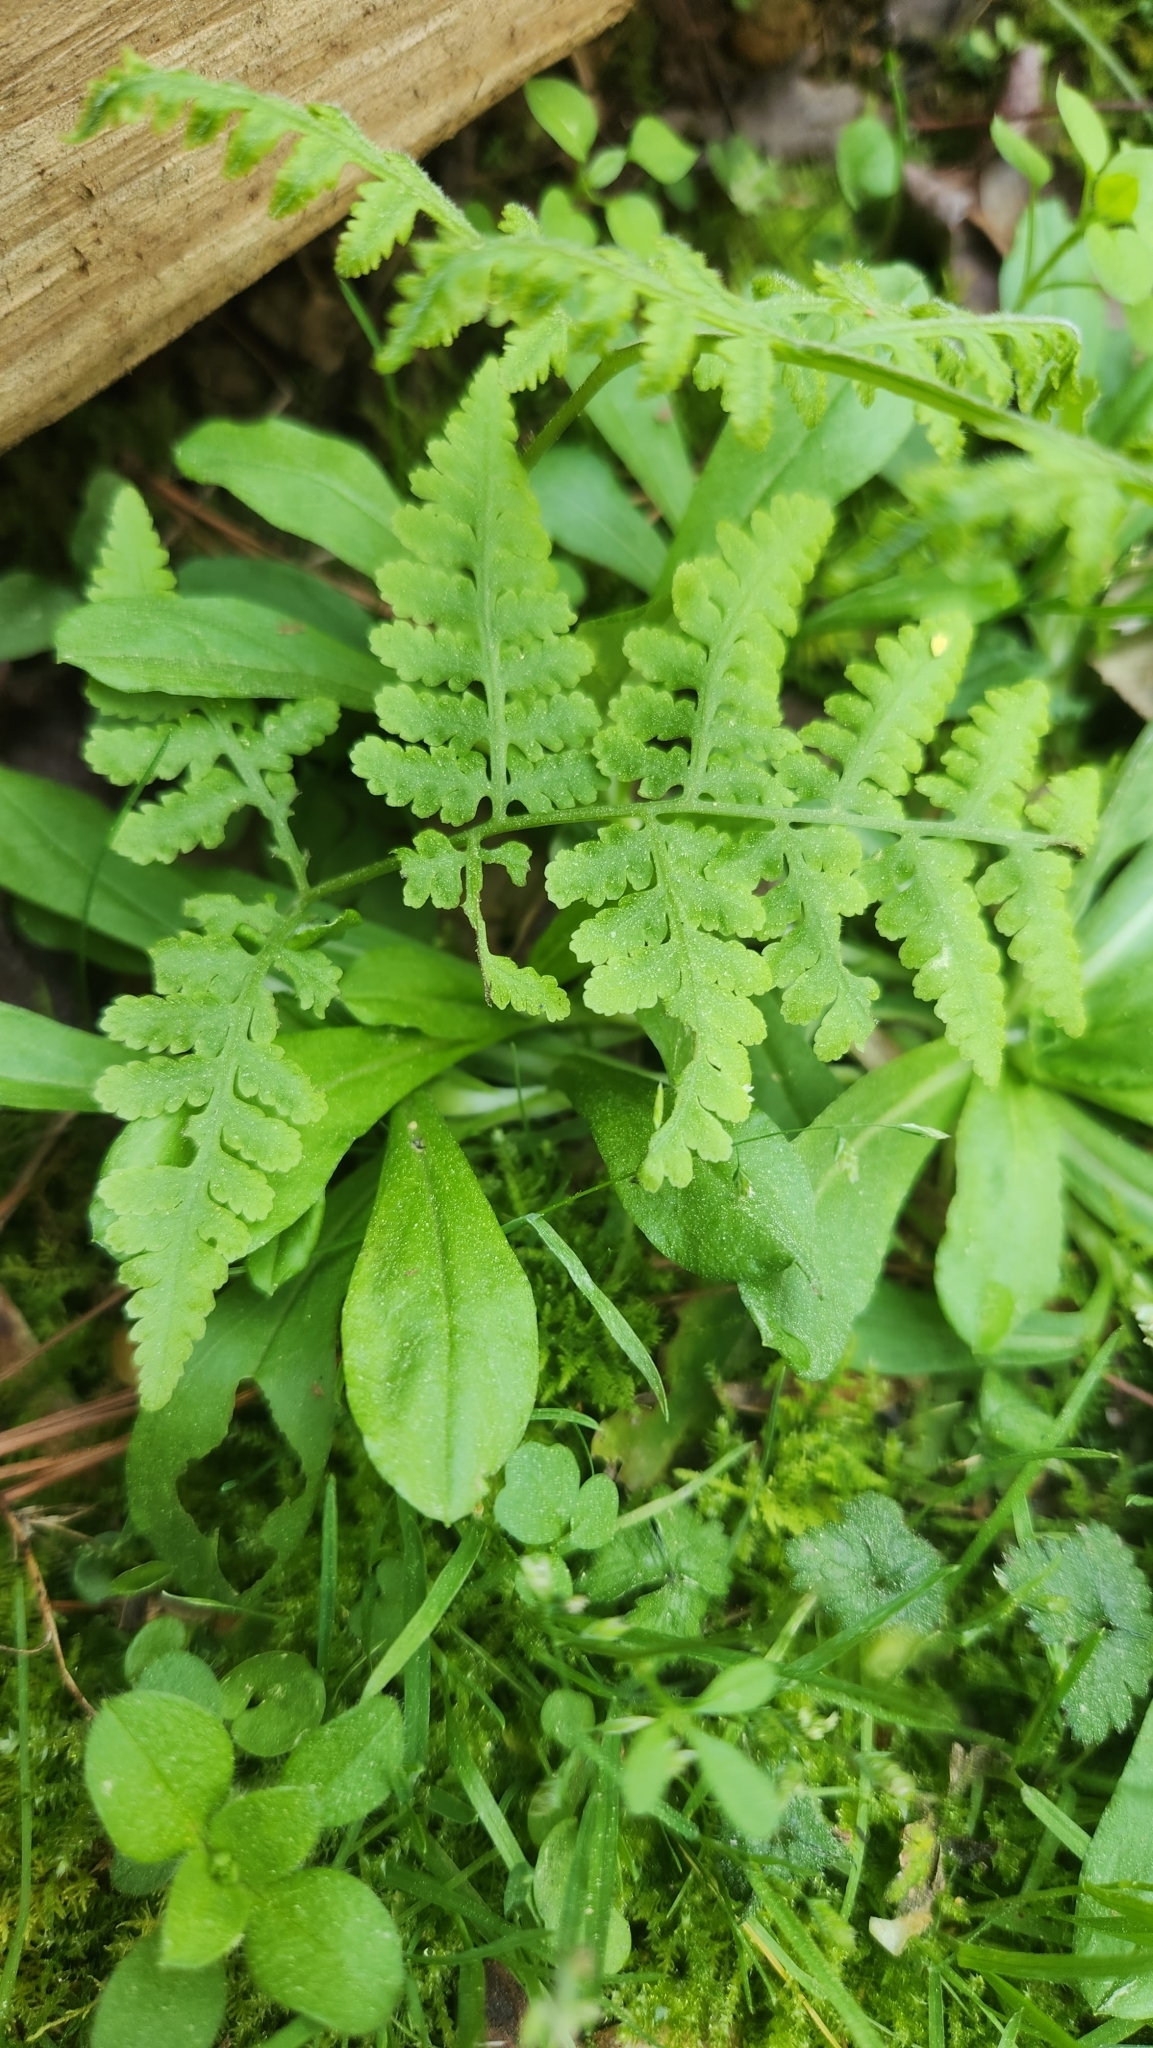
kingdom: Plantae
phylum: Tracheophyta
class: Polypodiopsida
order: Polypodiales
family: Thelypteridaceae
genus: Macrothelypteris
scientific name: Macrothelypteris torresiana
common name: Swordfern
